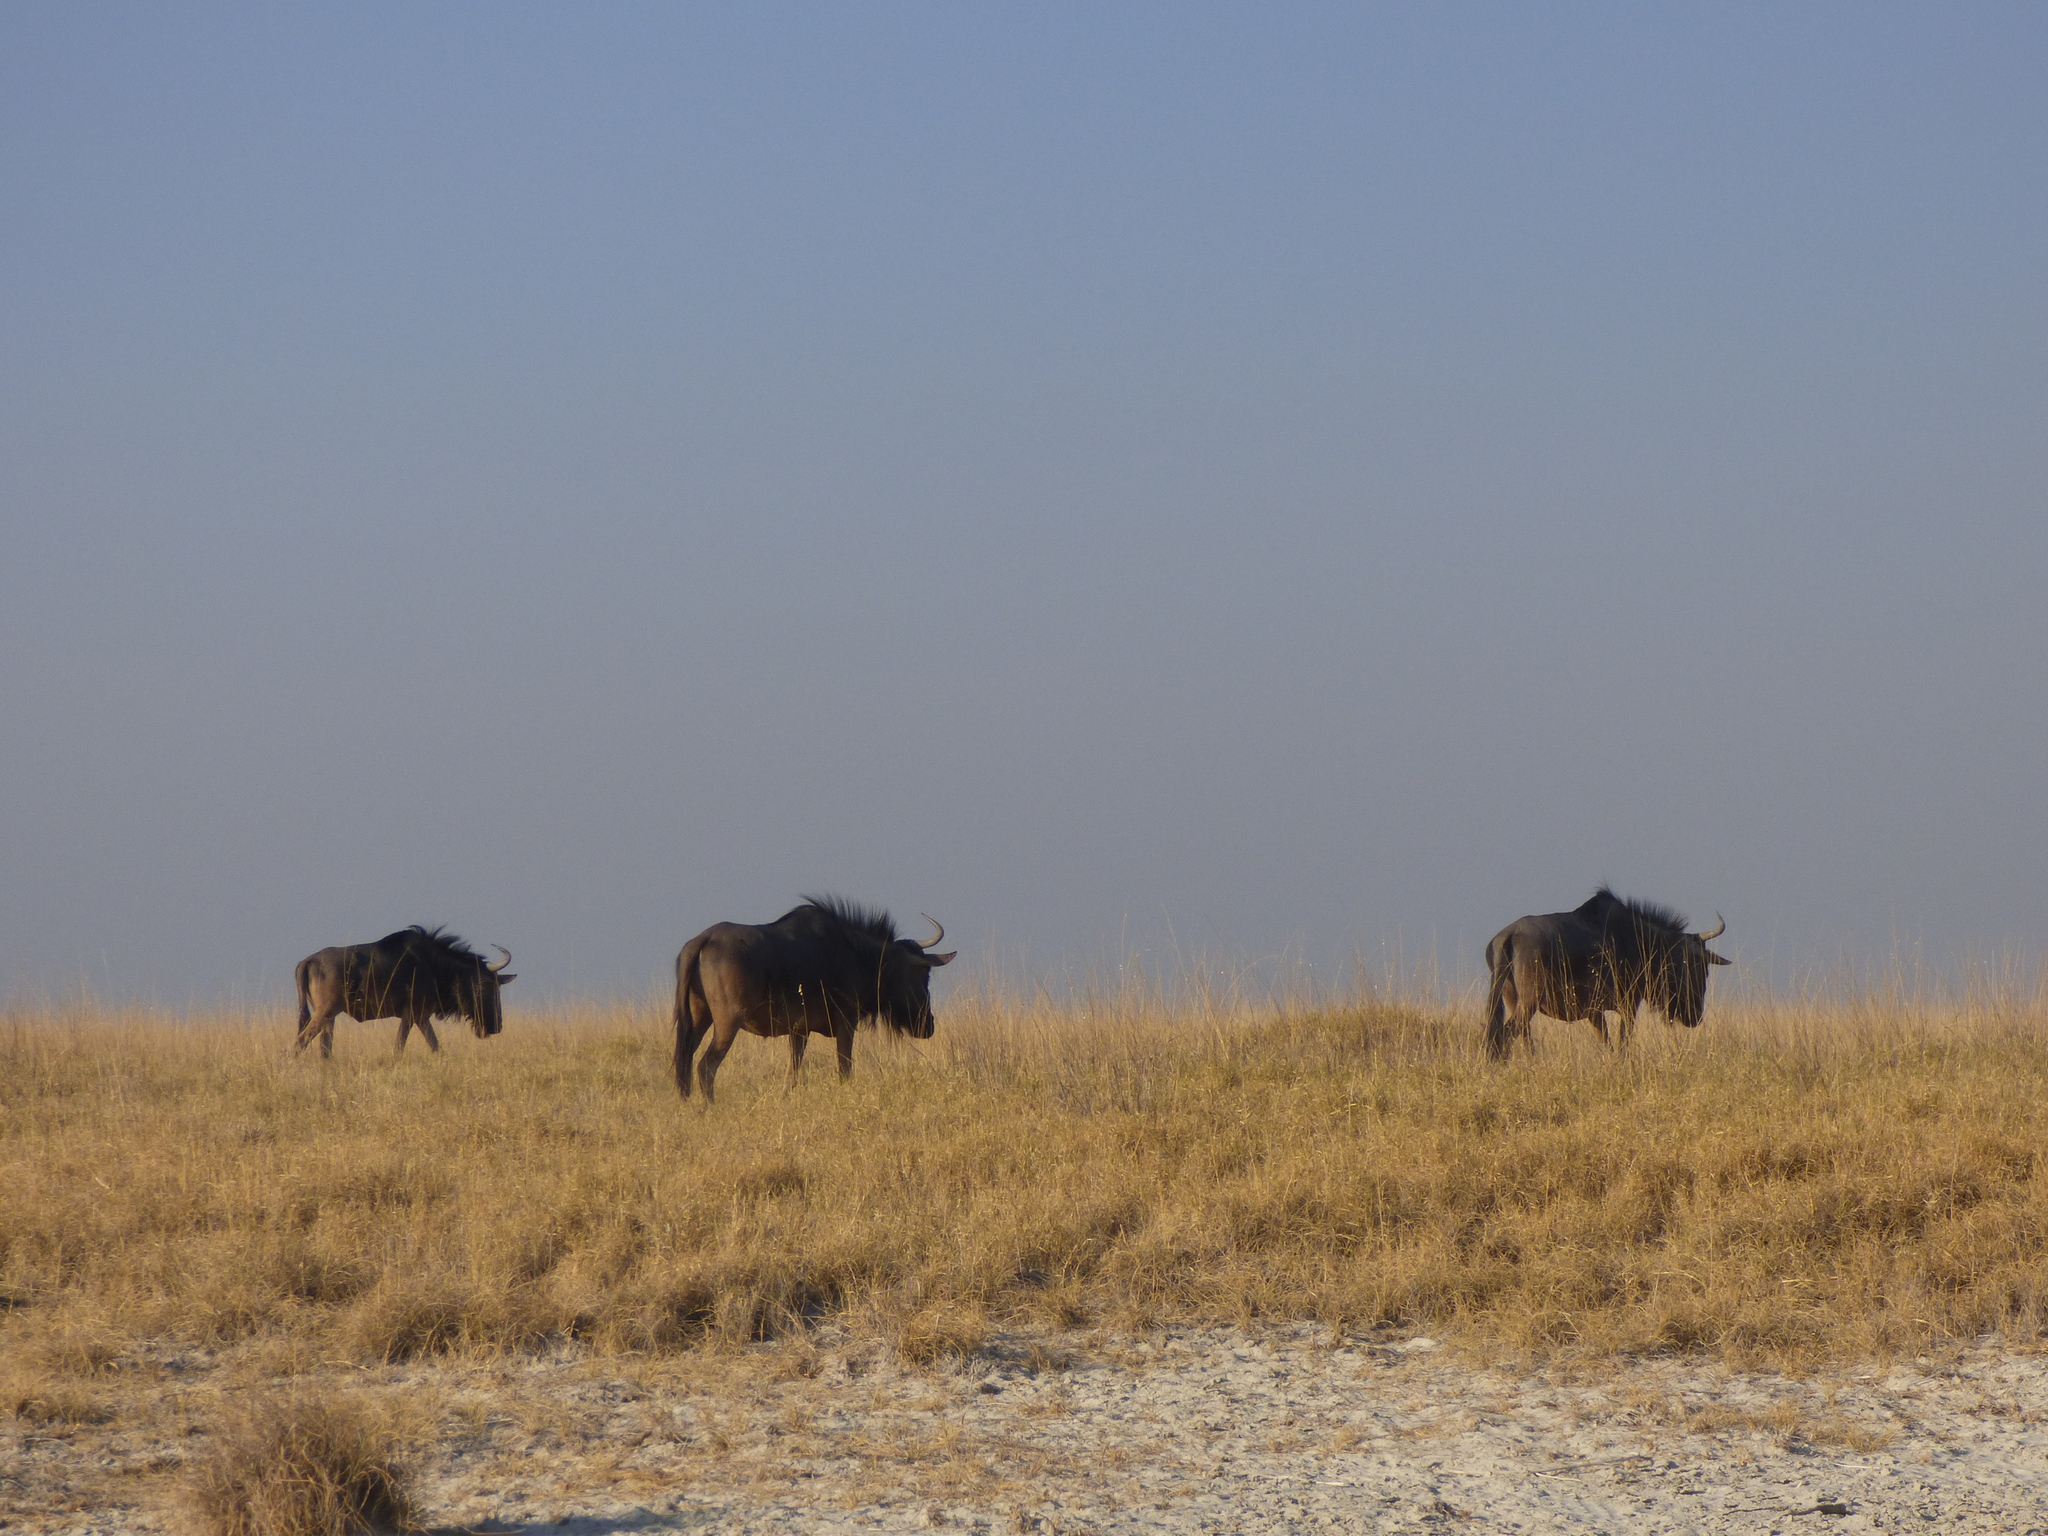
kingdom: Animalia
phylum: Chordata
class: Mammalia
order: Artiodactyla
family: Bovidae
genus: Connochaetes
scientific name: Connochaetes taurinus
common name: Blue wildebeest
